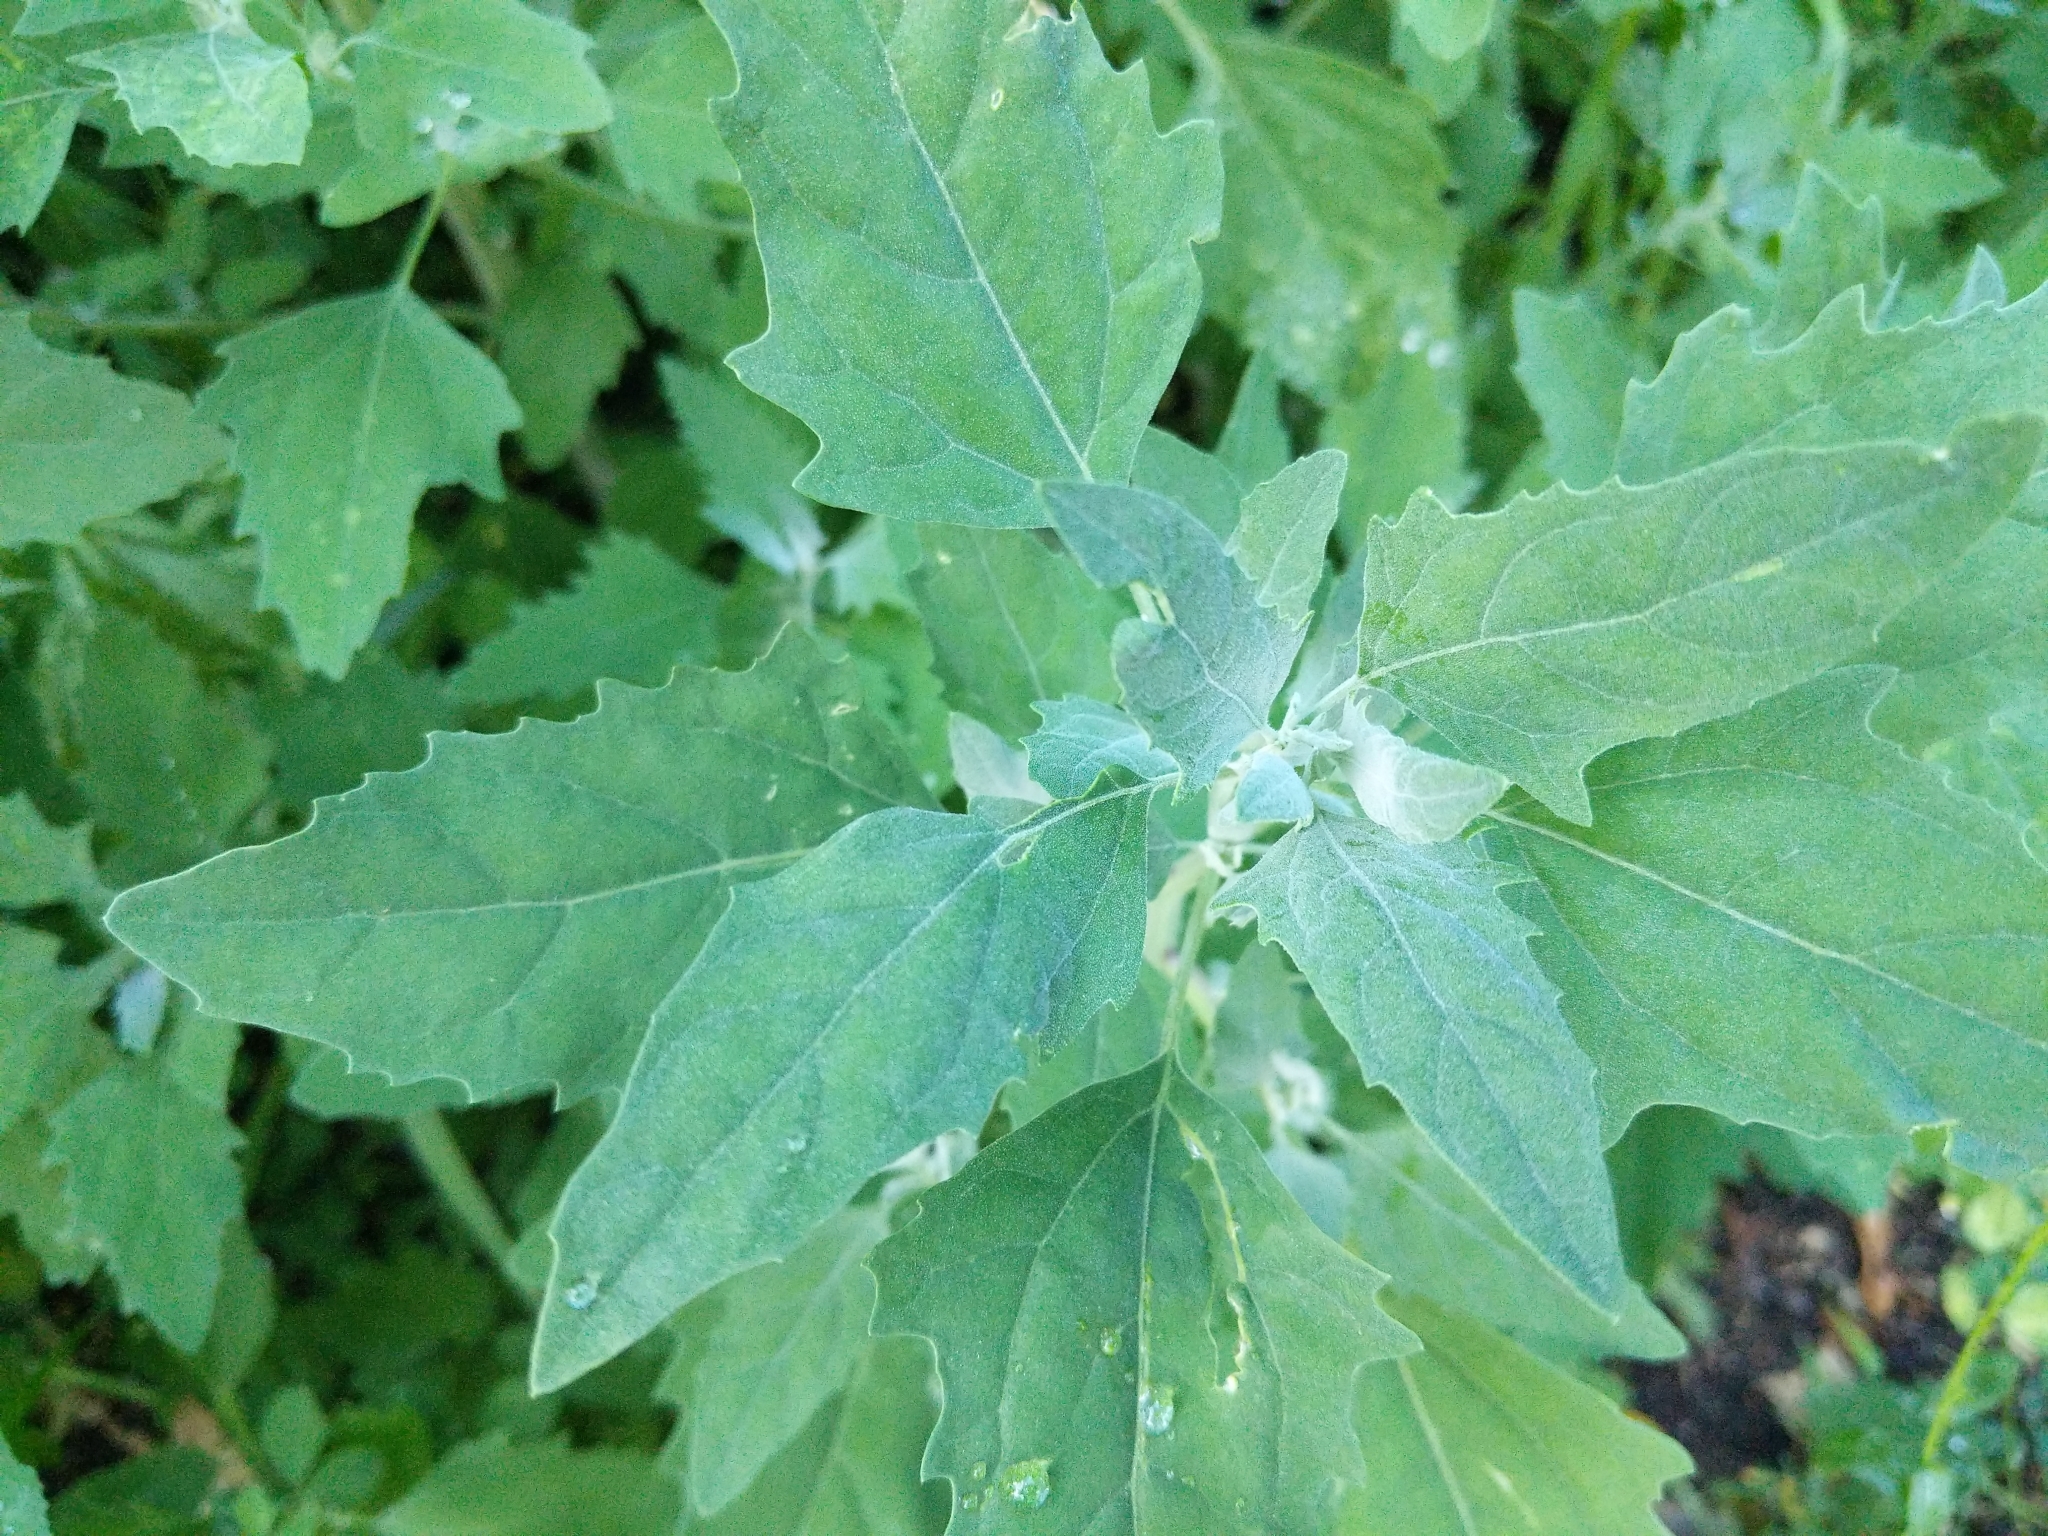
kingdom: Plantae
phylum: Tracheophyta
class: Magnoliopsida
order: Caryophyllales
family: Amaranthaceae
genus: Chenopodium
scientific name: Chenopodium album
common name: Fat-hen
